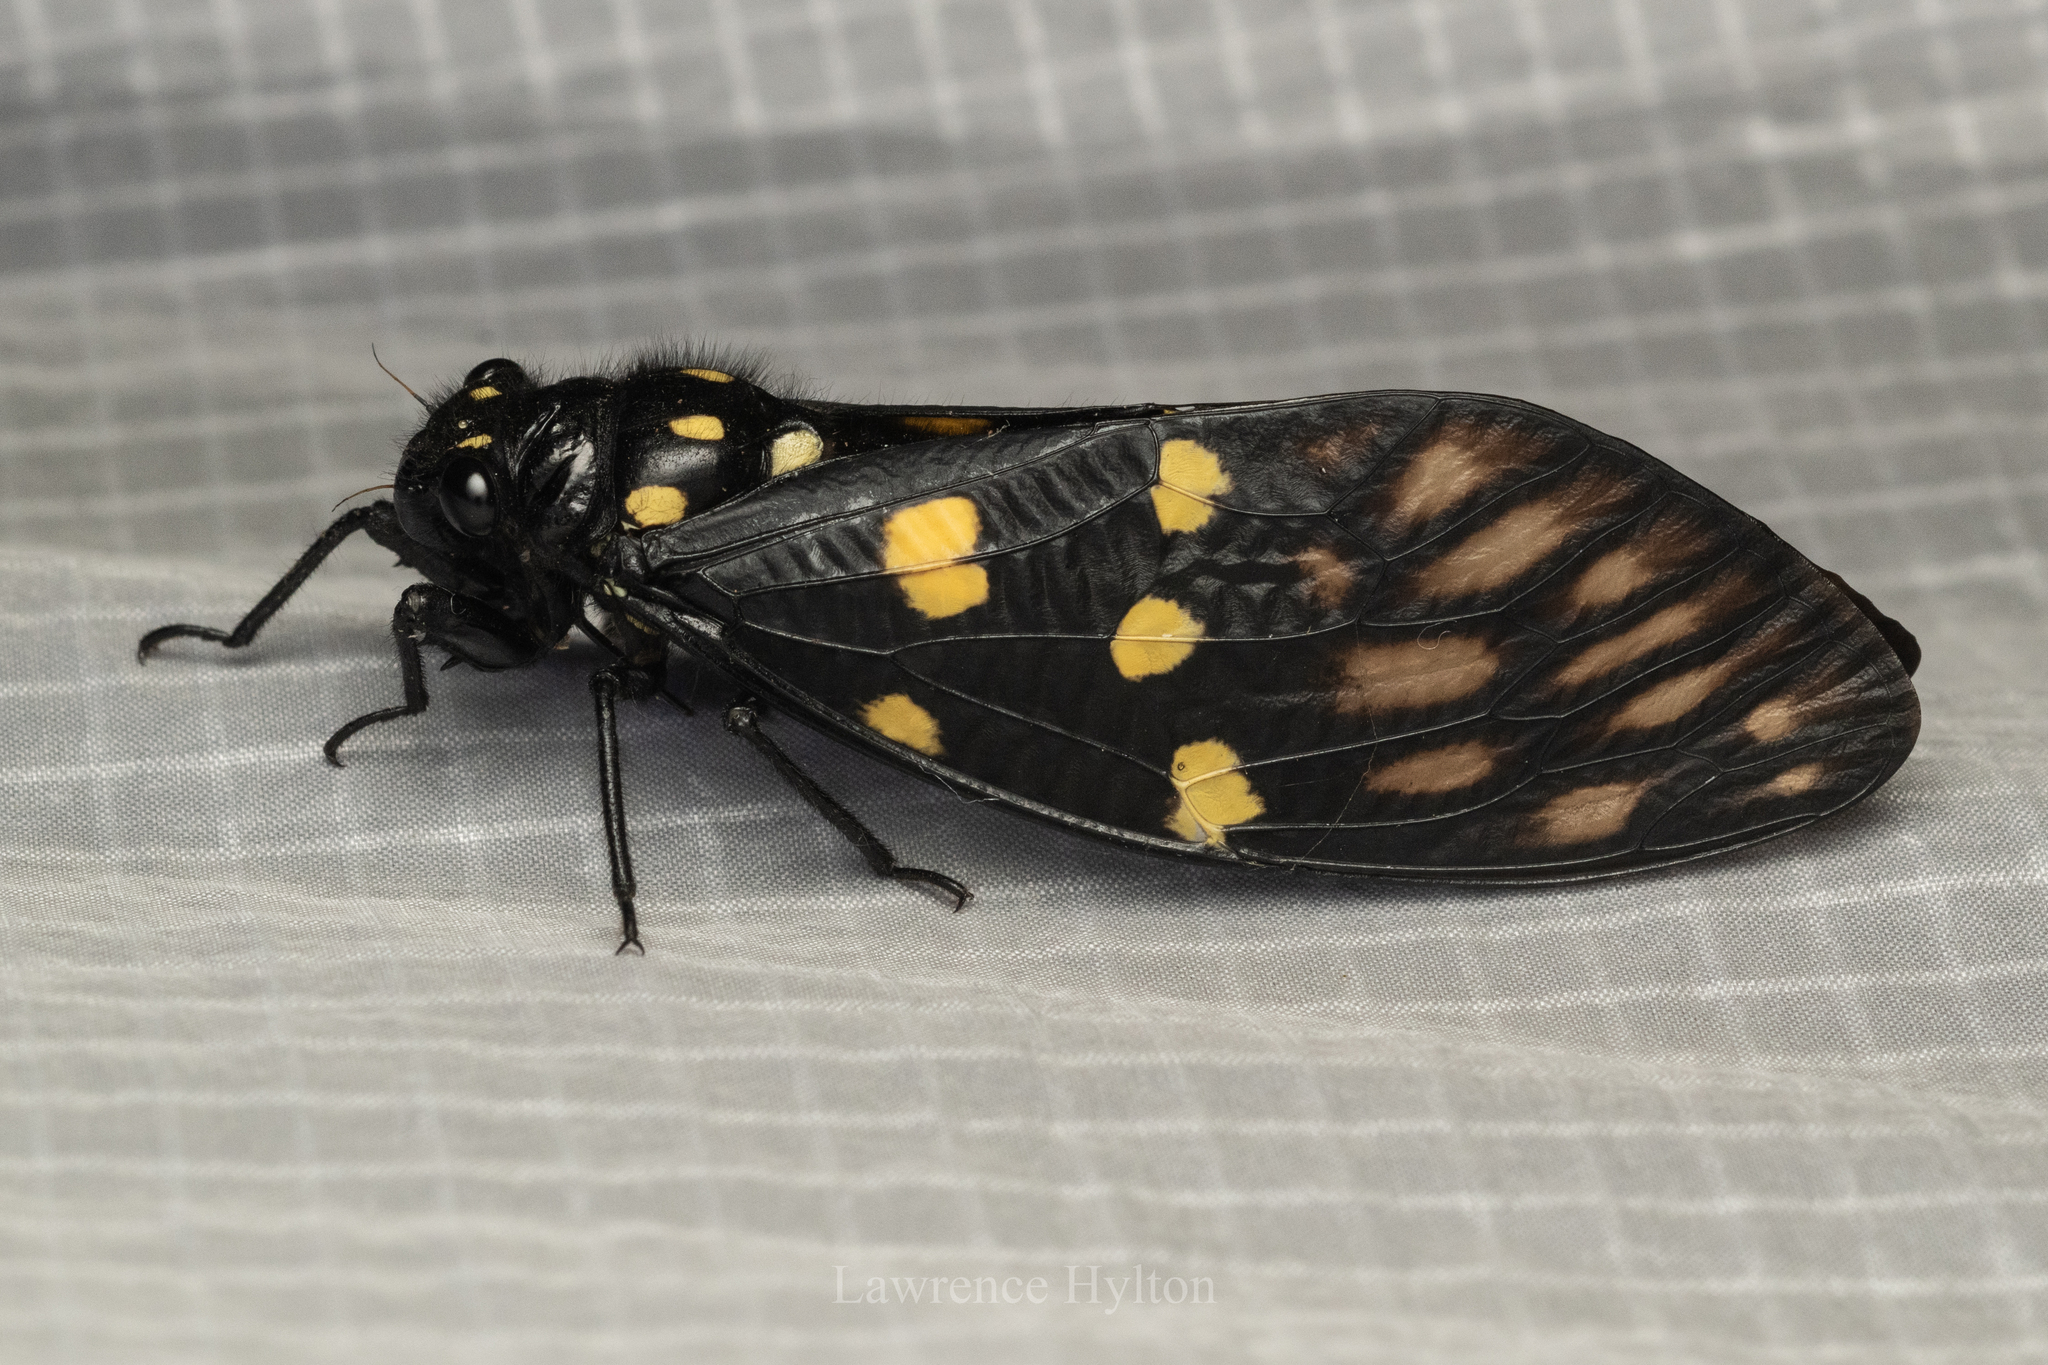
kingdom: Animalia
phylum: Arthropoda
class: Insecta
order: Hemiptera
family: Cicadidae
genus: Gaeana
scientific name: Gaeana maculata
